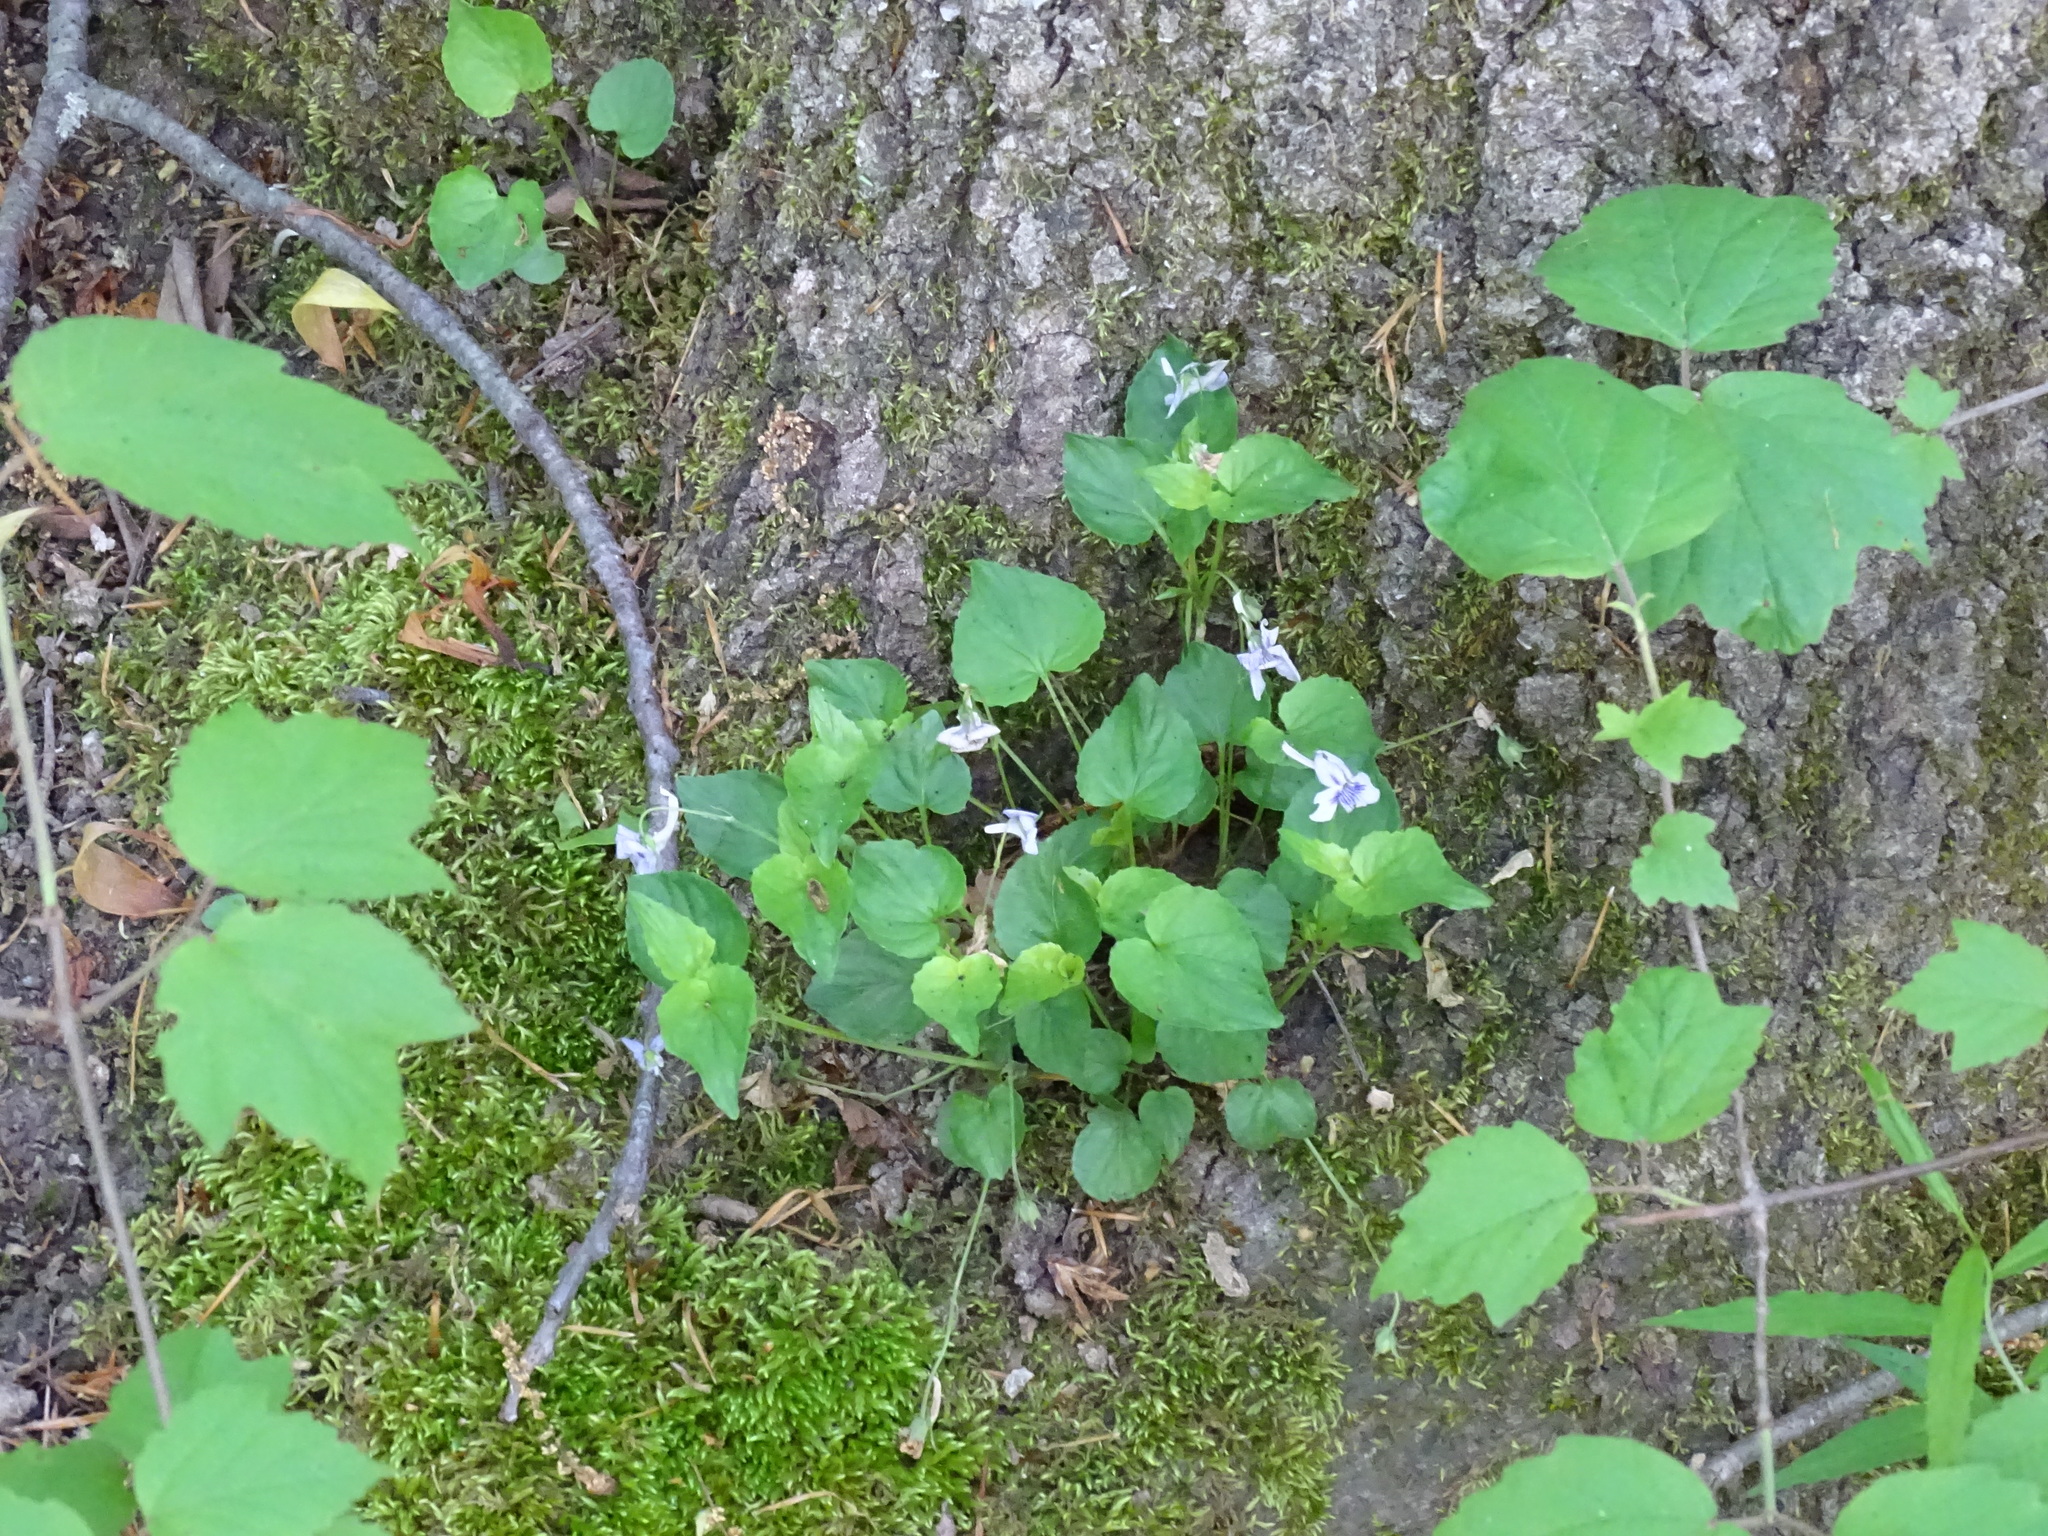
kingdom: Plantae
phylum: Tracheophyta
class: Magnoliopsida
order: Malpighiales
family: Violaceae
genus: Viola
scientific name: Viola rostrata
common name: Long-spur violet
